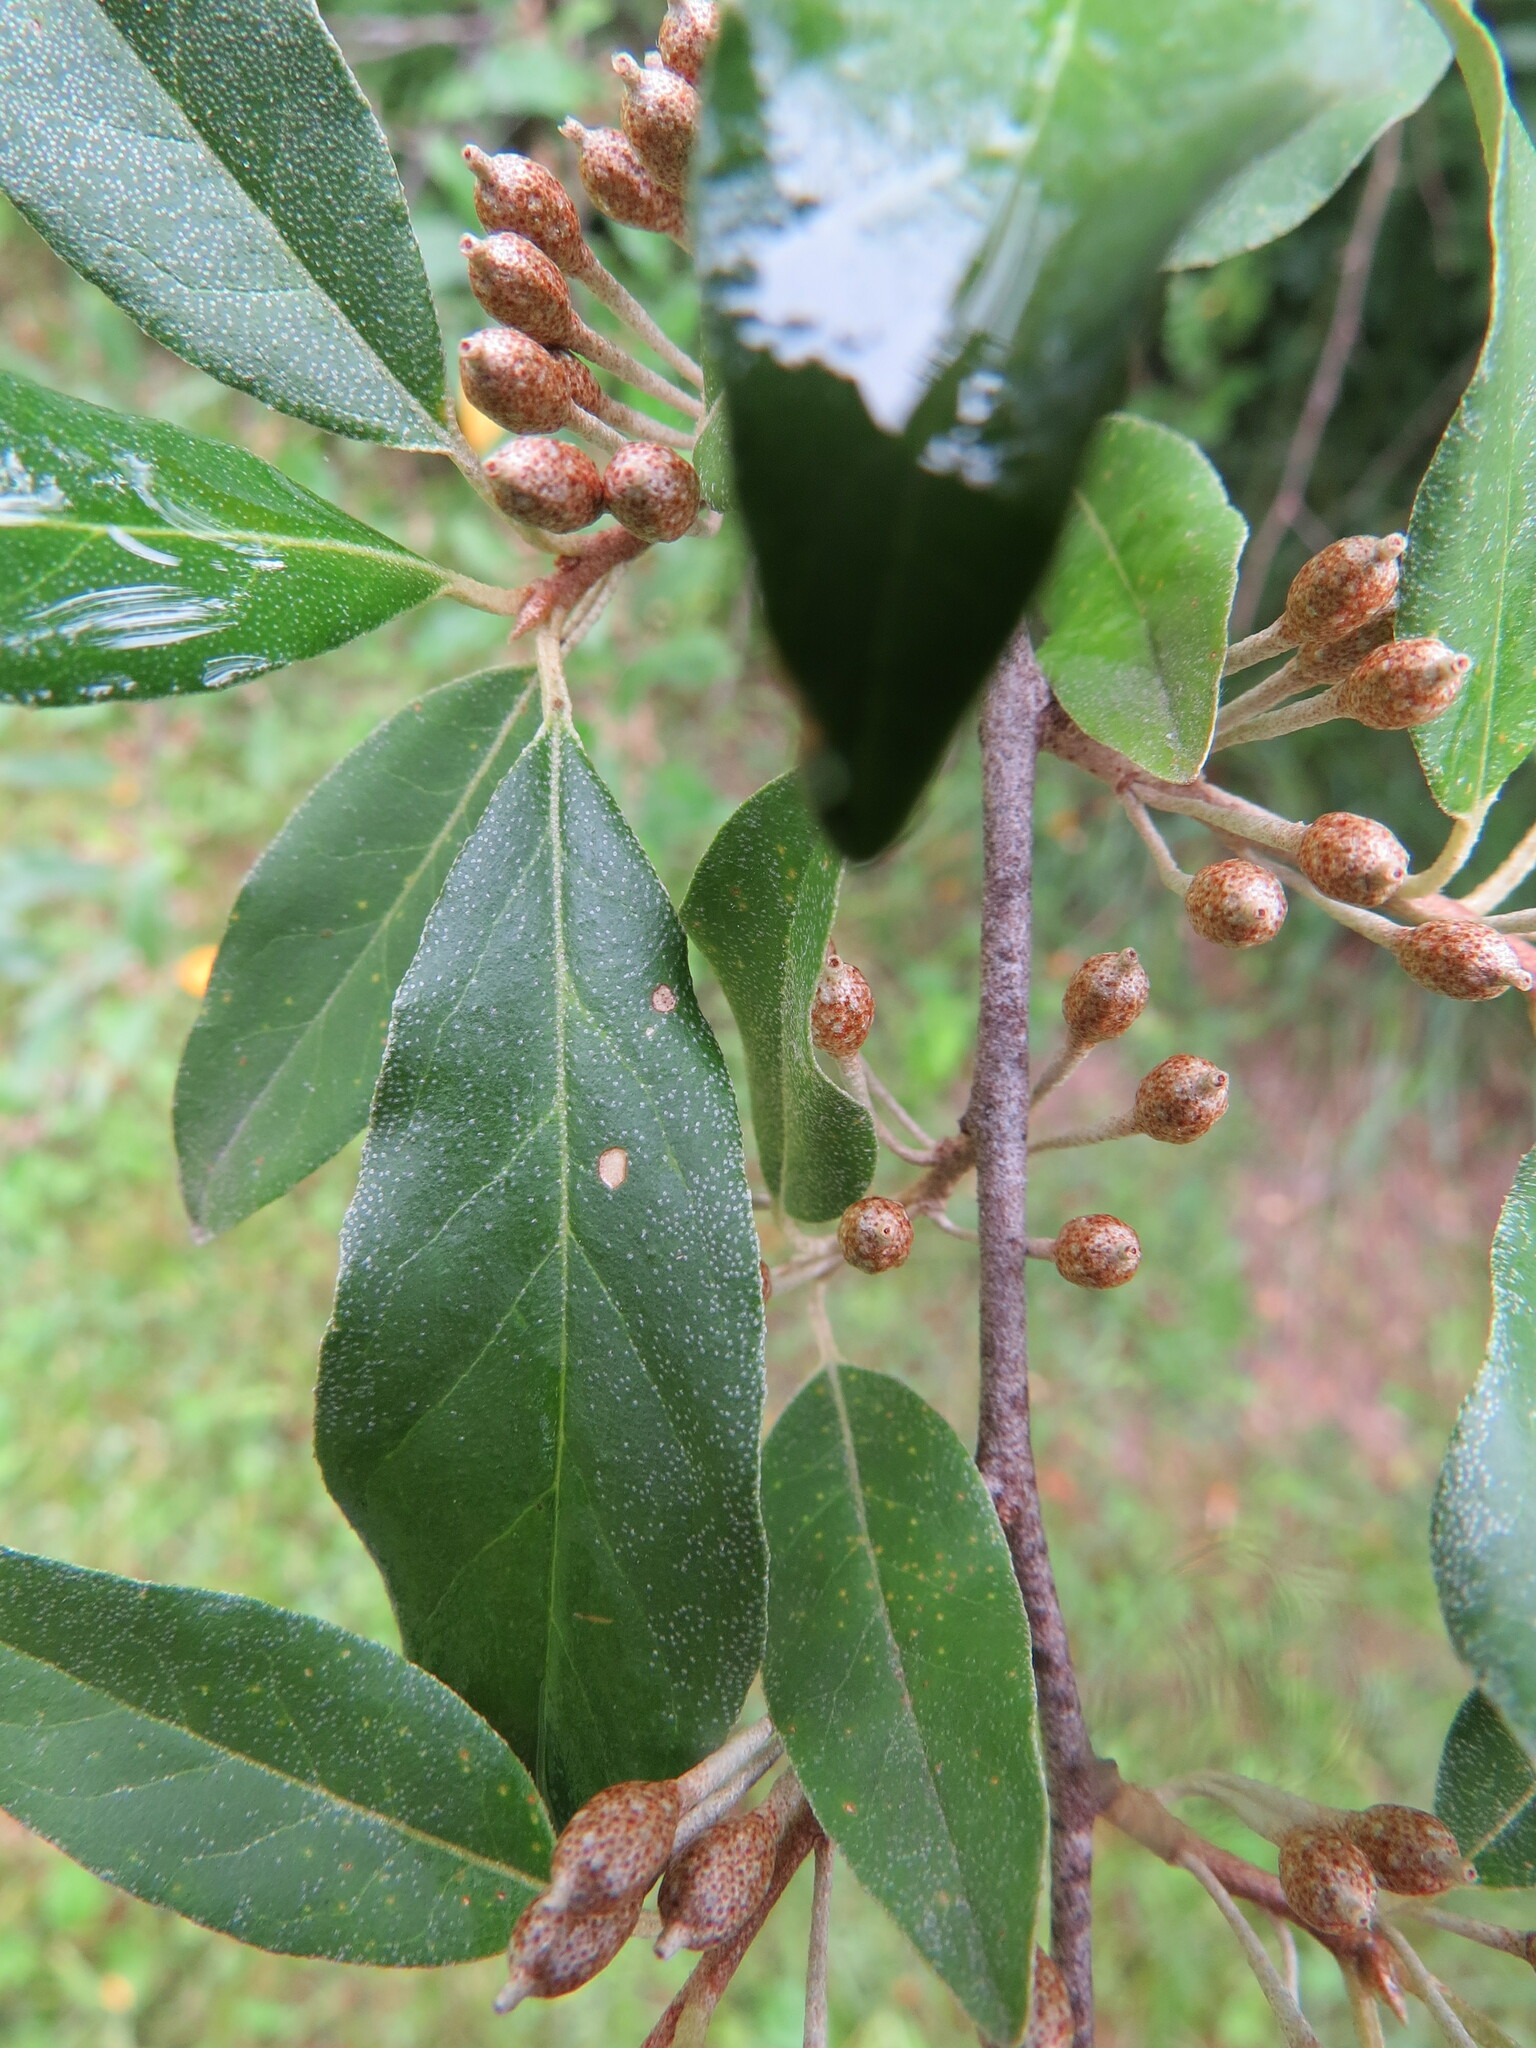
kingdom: Plantae
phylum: Tracheophyta
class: Magnoliopsida
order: Rosales
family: Elaeagnaceae
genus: Elaeagnus
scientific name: Elaeagnus umbellata
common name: Autumn olive
